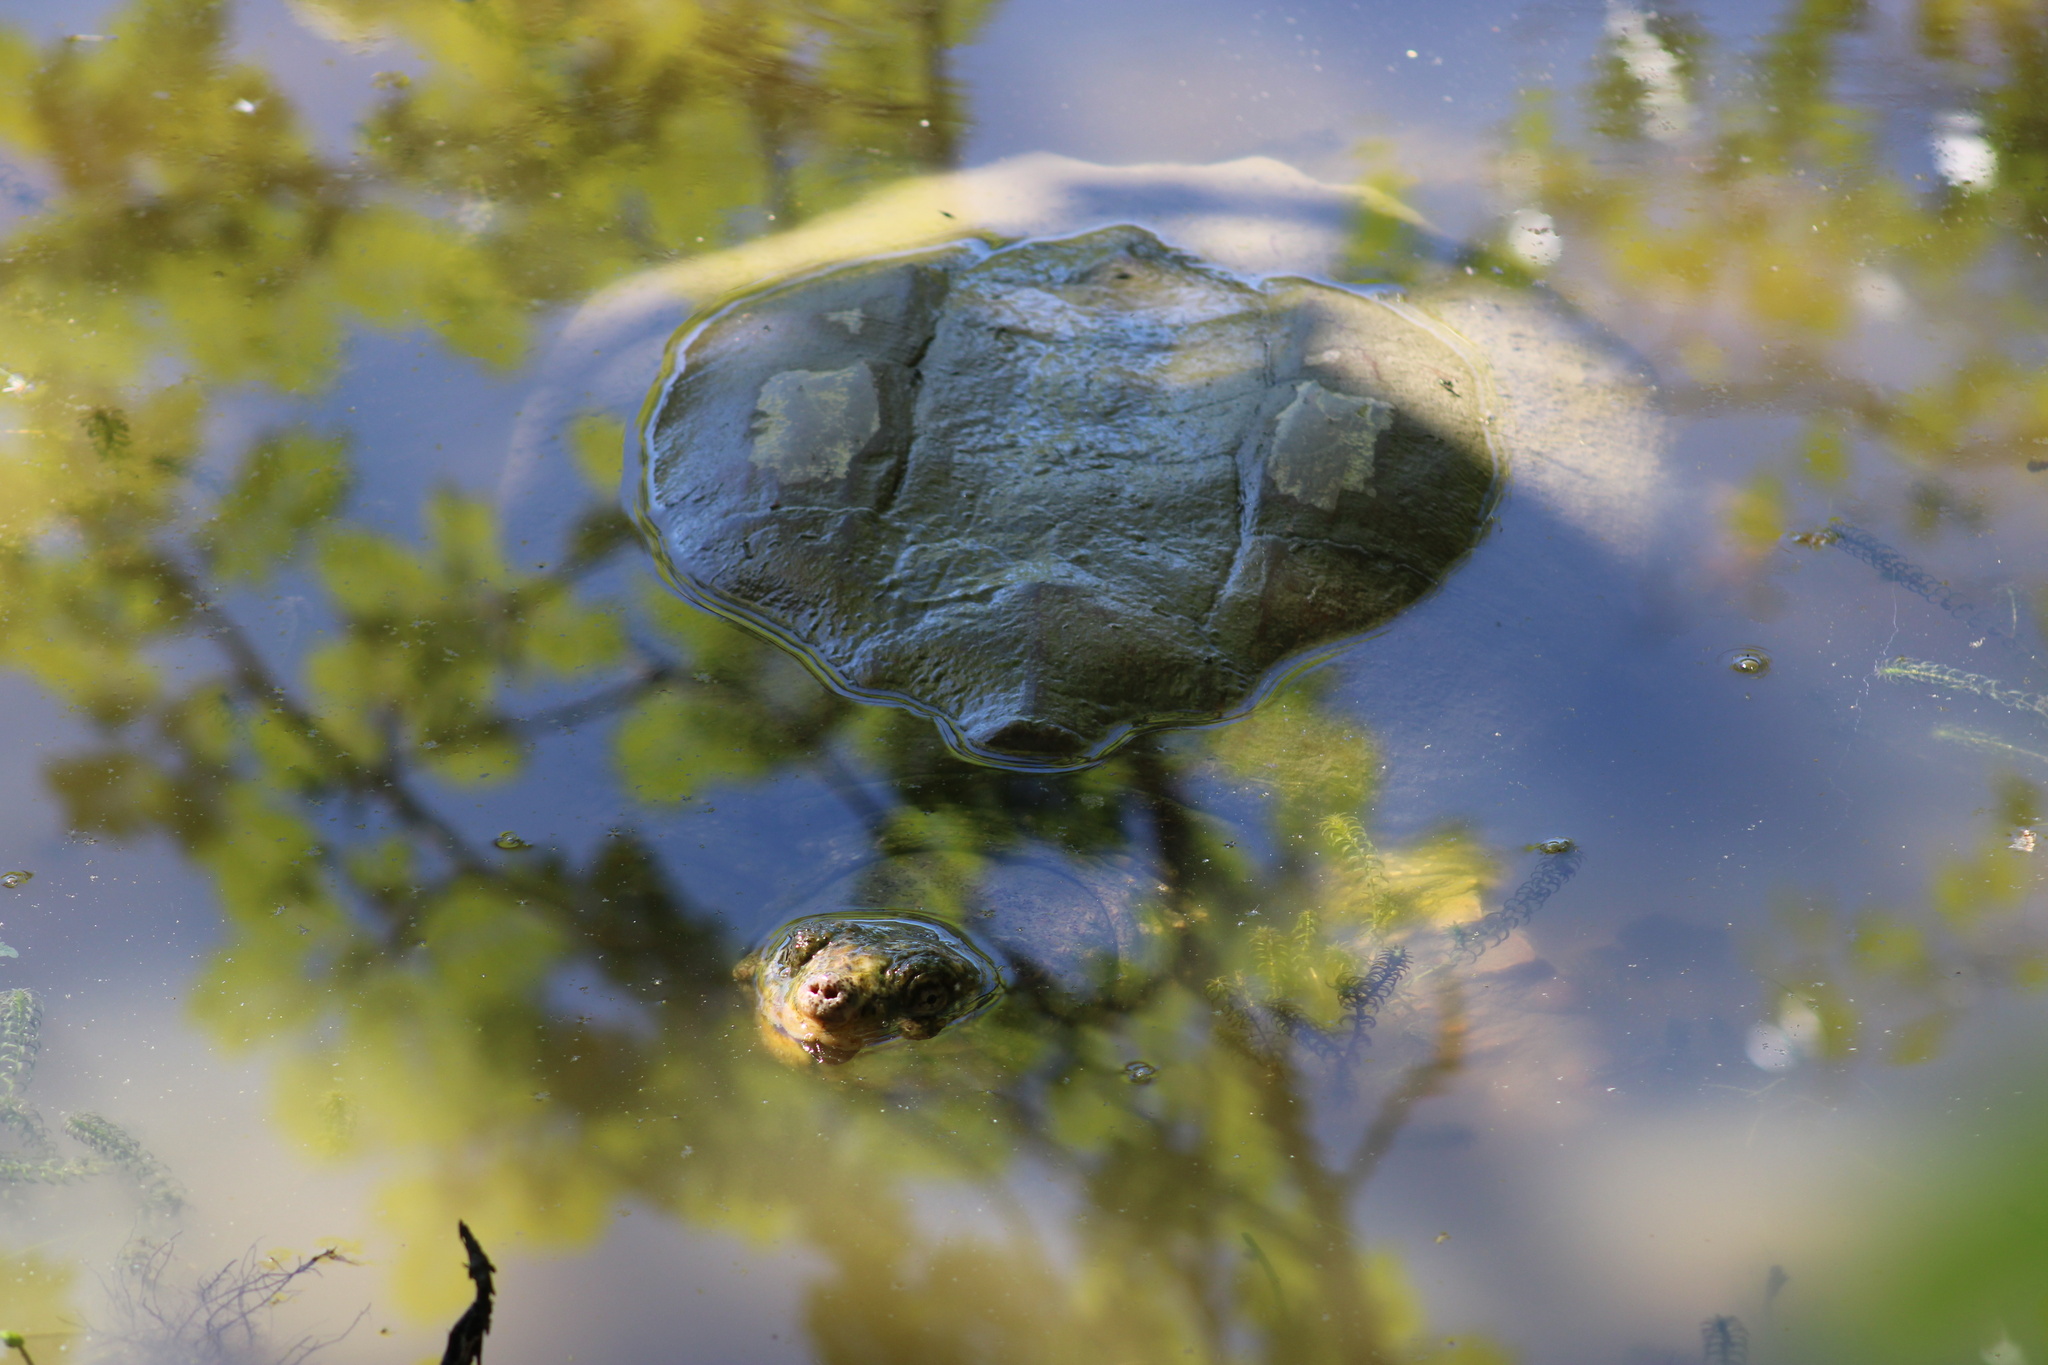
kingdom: Animalia
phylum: Chordata
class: Testudines
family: Chelydridae
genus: Chelydra
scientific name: Chelydra serpentina
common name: Common snapping turtle
